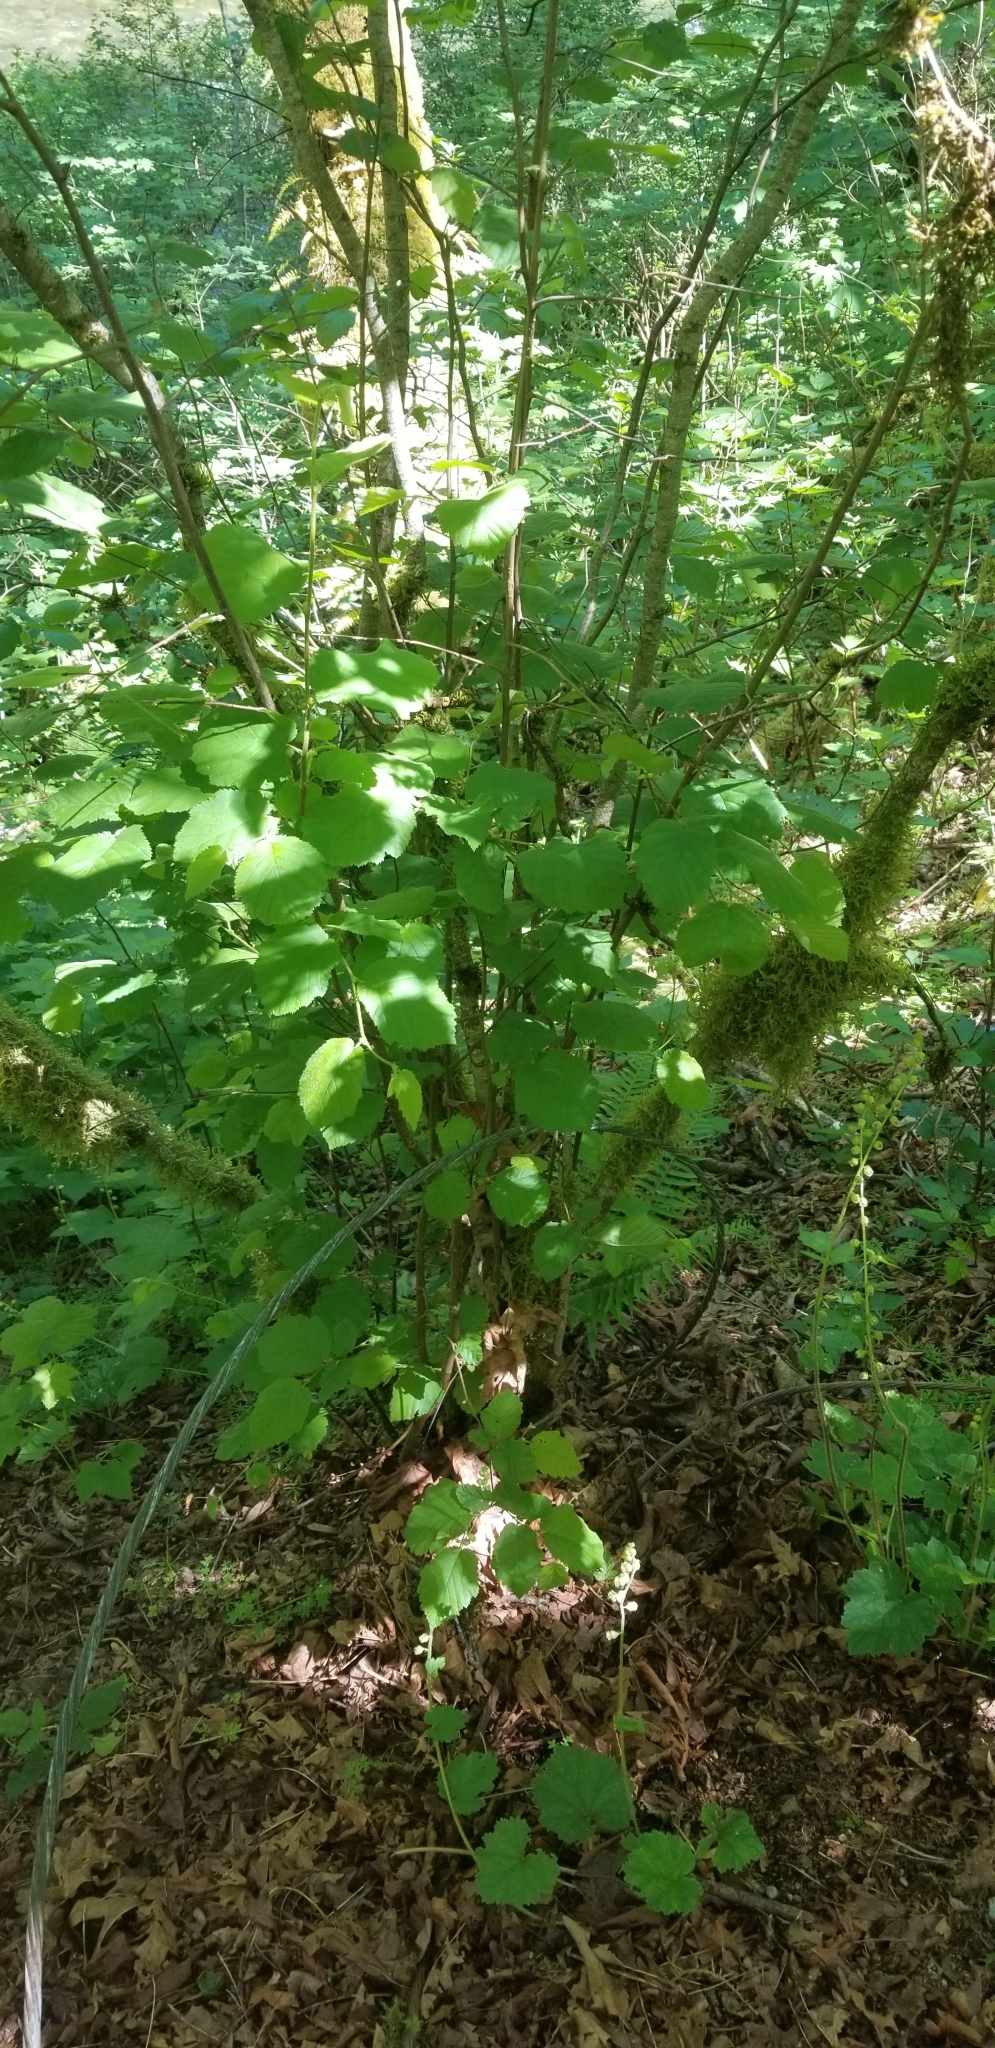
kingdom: Plantae
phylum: Tracheophyta
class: Magnoliopsida
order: Fagales
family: Betulaceae
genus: Corylus
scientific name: Corylus cornuta
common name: Beaked hazel
